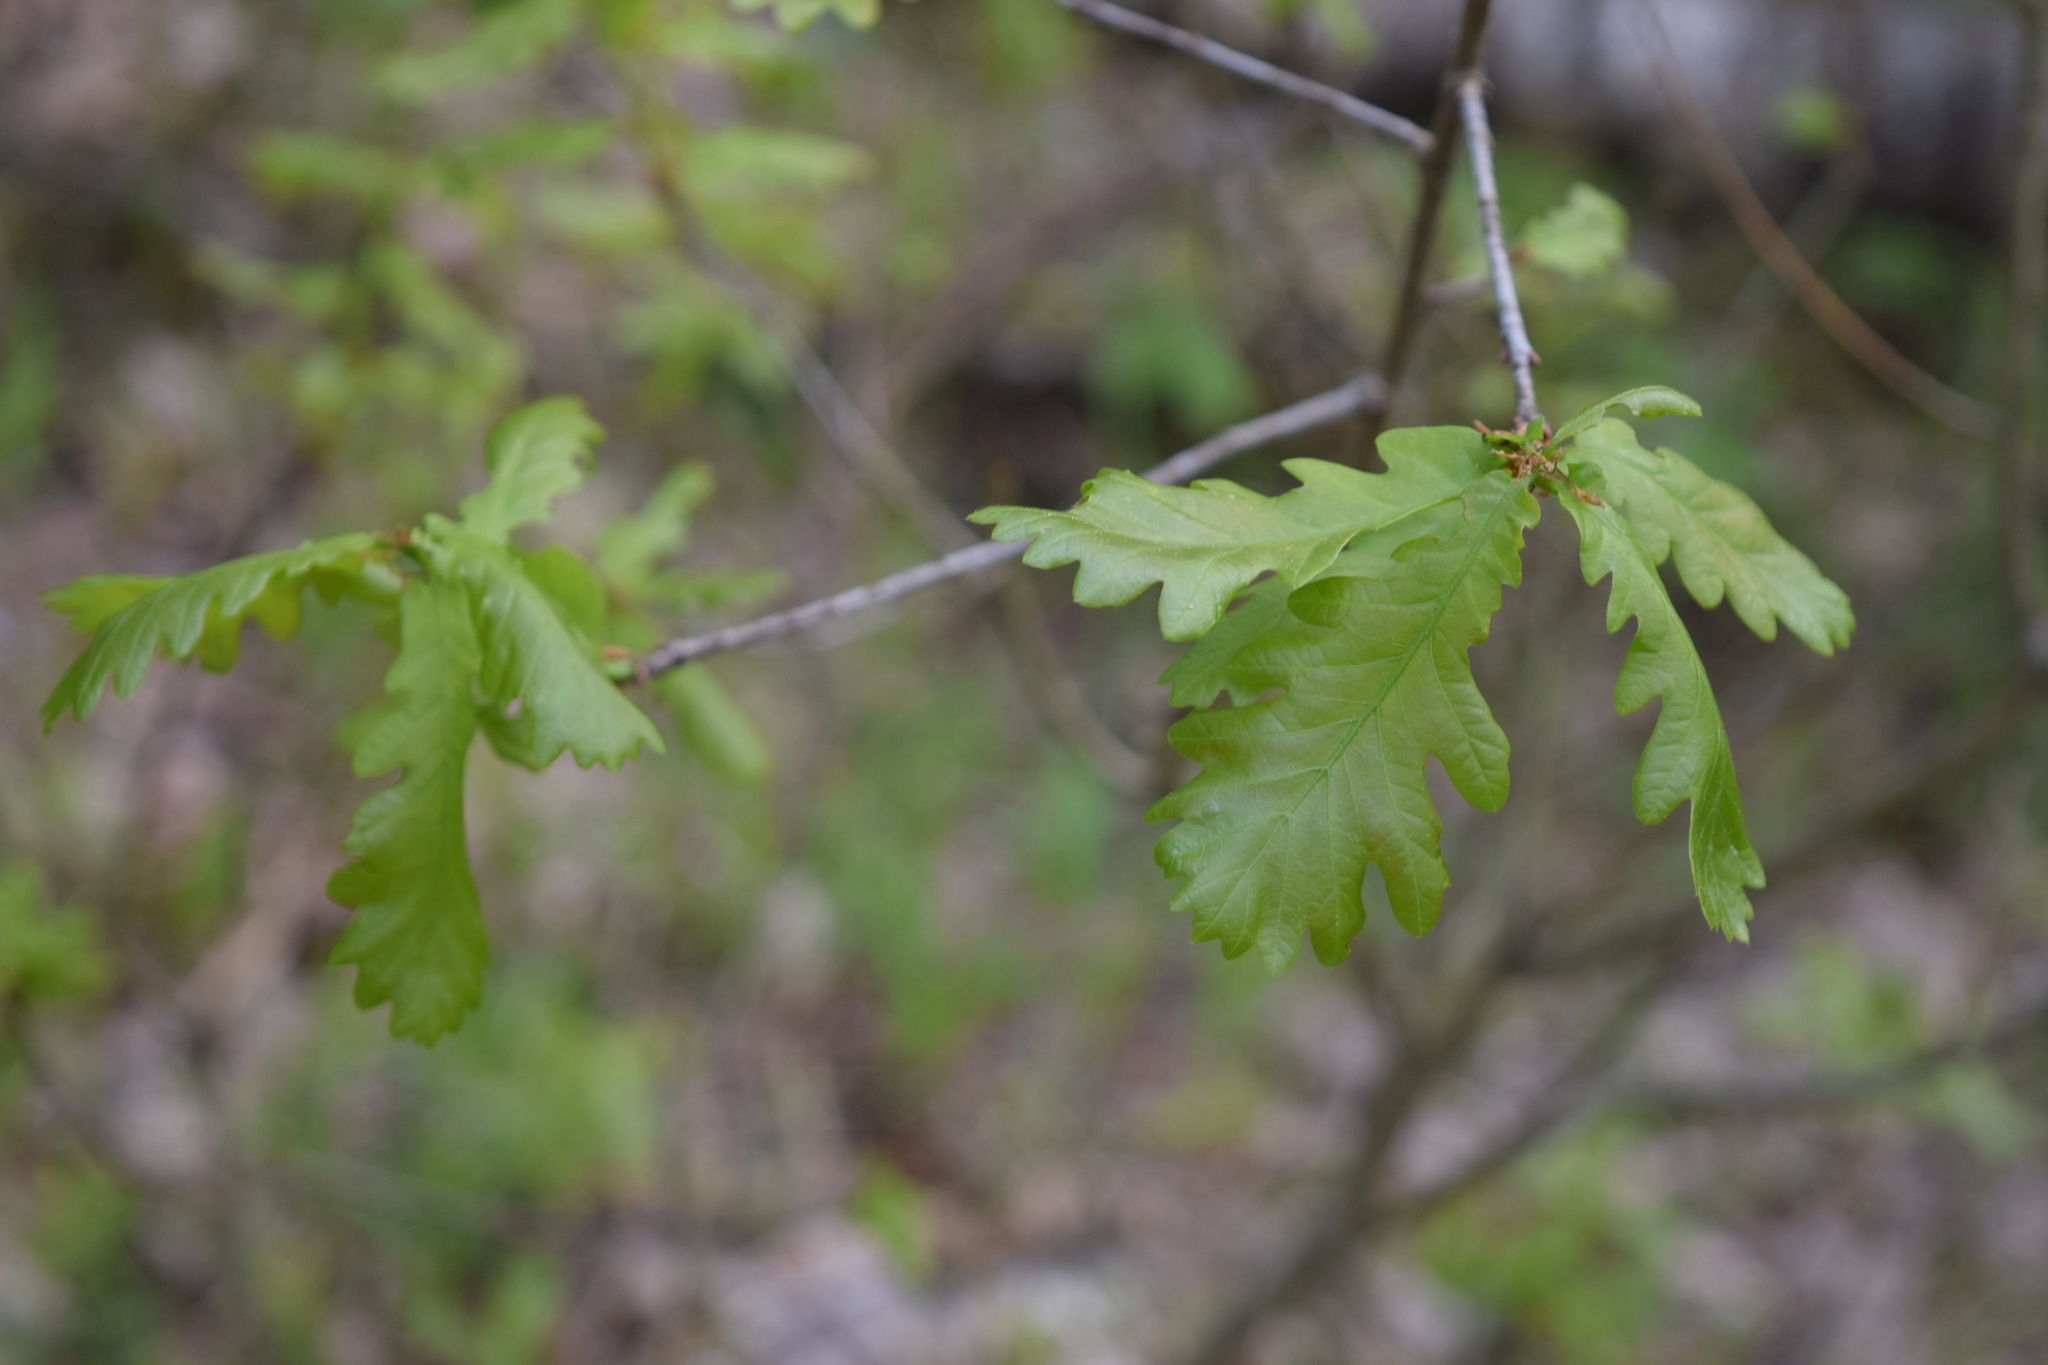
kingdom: Plantae
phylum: Tracheophyta
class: Magnoliopsida
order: Fagales
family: Fagaceae
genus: Quercus
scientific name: Quercus robur
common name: Pedunculate oak
